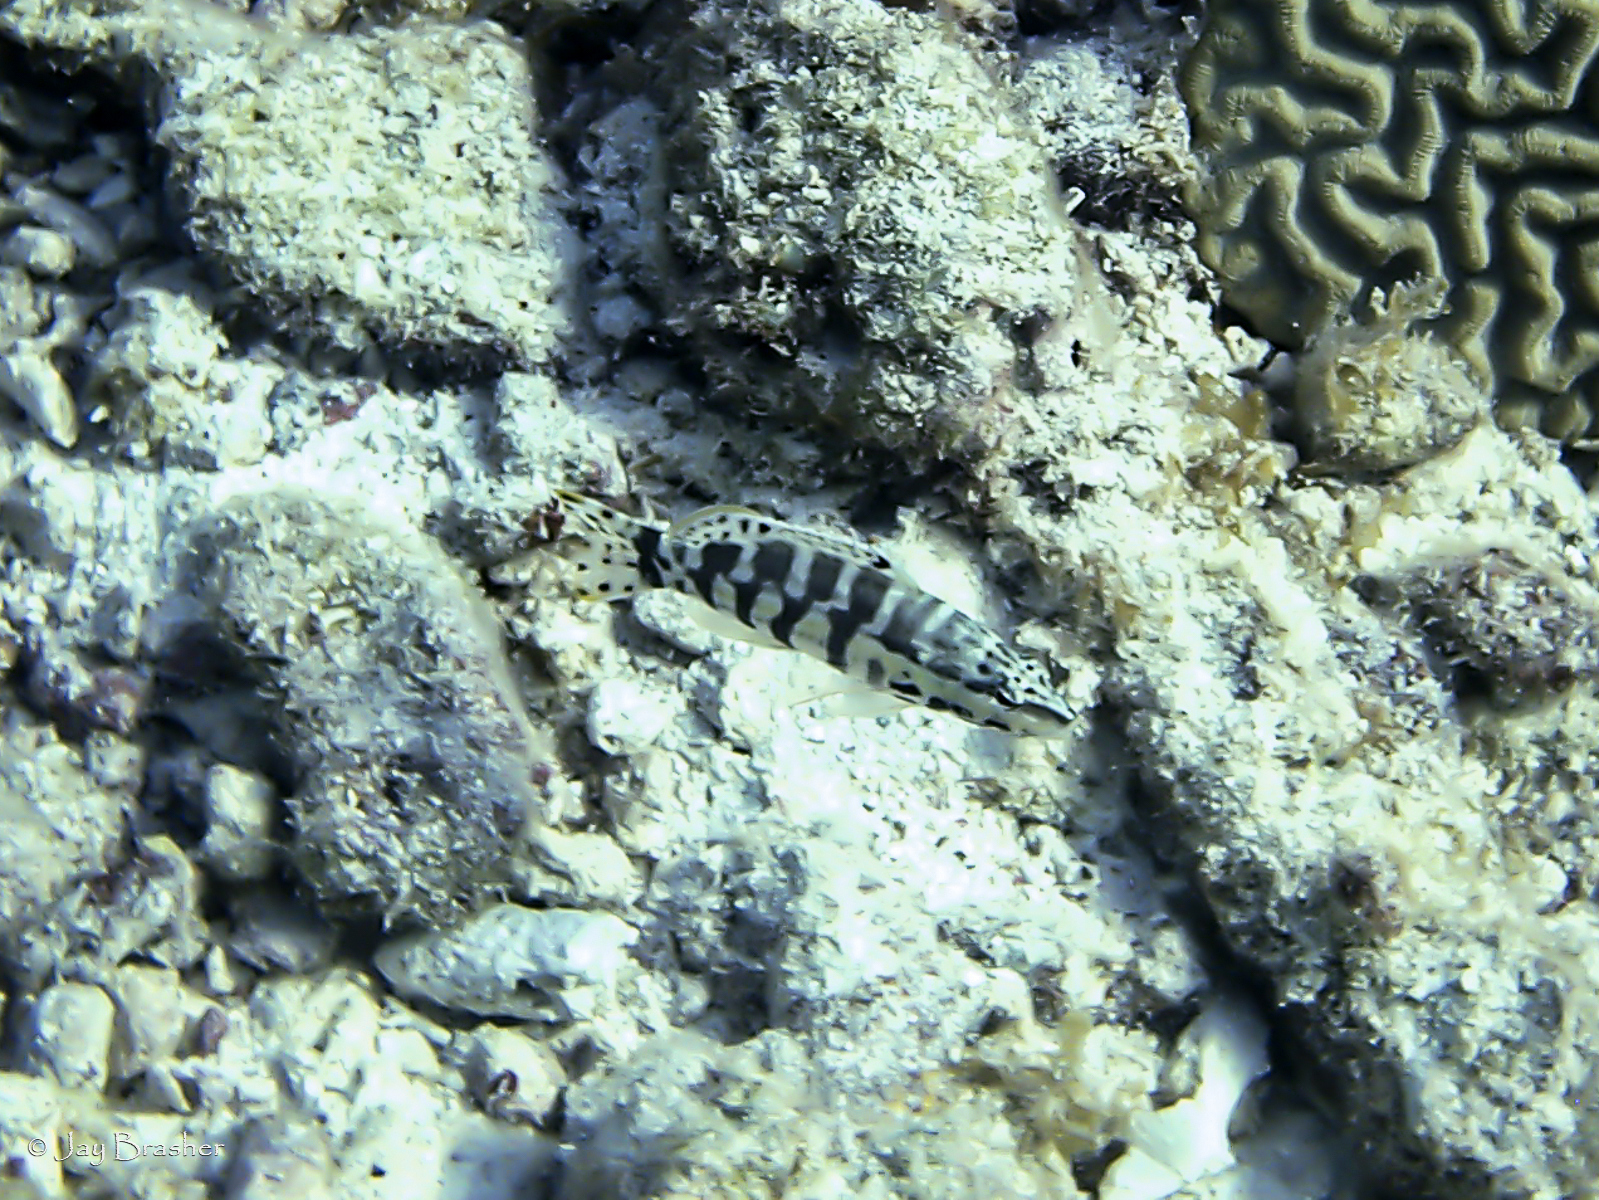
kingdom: Animalia
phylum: Chordata
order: Perciformes
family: Serranidae
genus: Serranus
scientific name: Serranus tigrinus
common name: Harlequin bass
